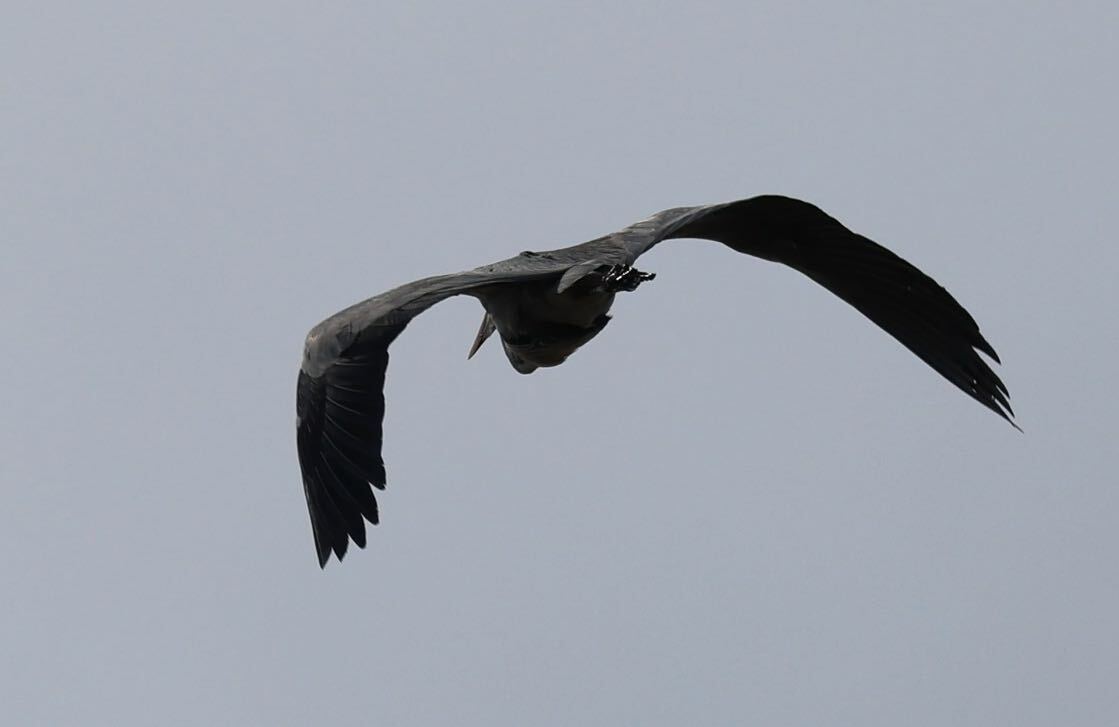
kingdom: Animalia
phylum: Chordata
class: Aves
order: Pelecaniformes
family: Ardeidae
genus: Ardea
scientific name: Ardea cinerea
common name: Grey heron
